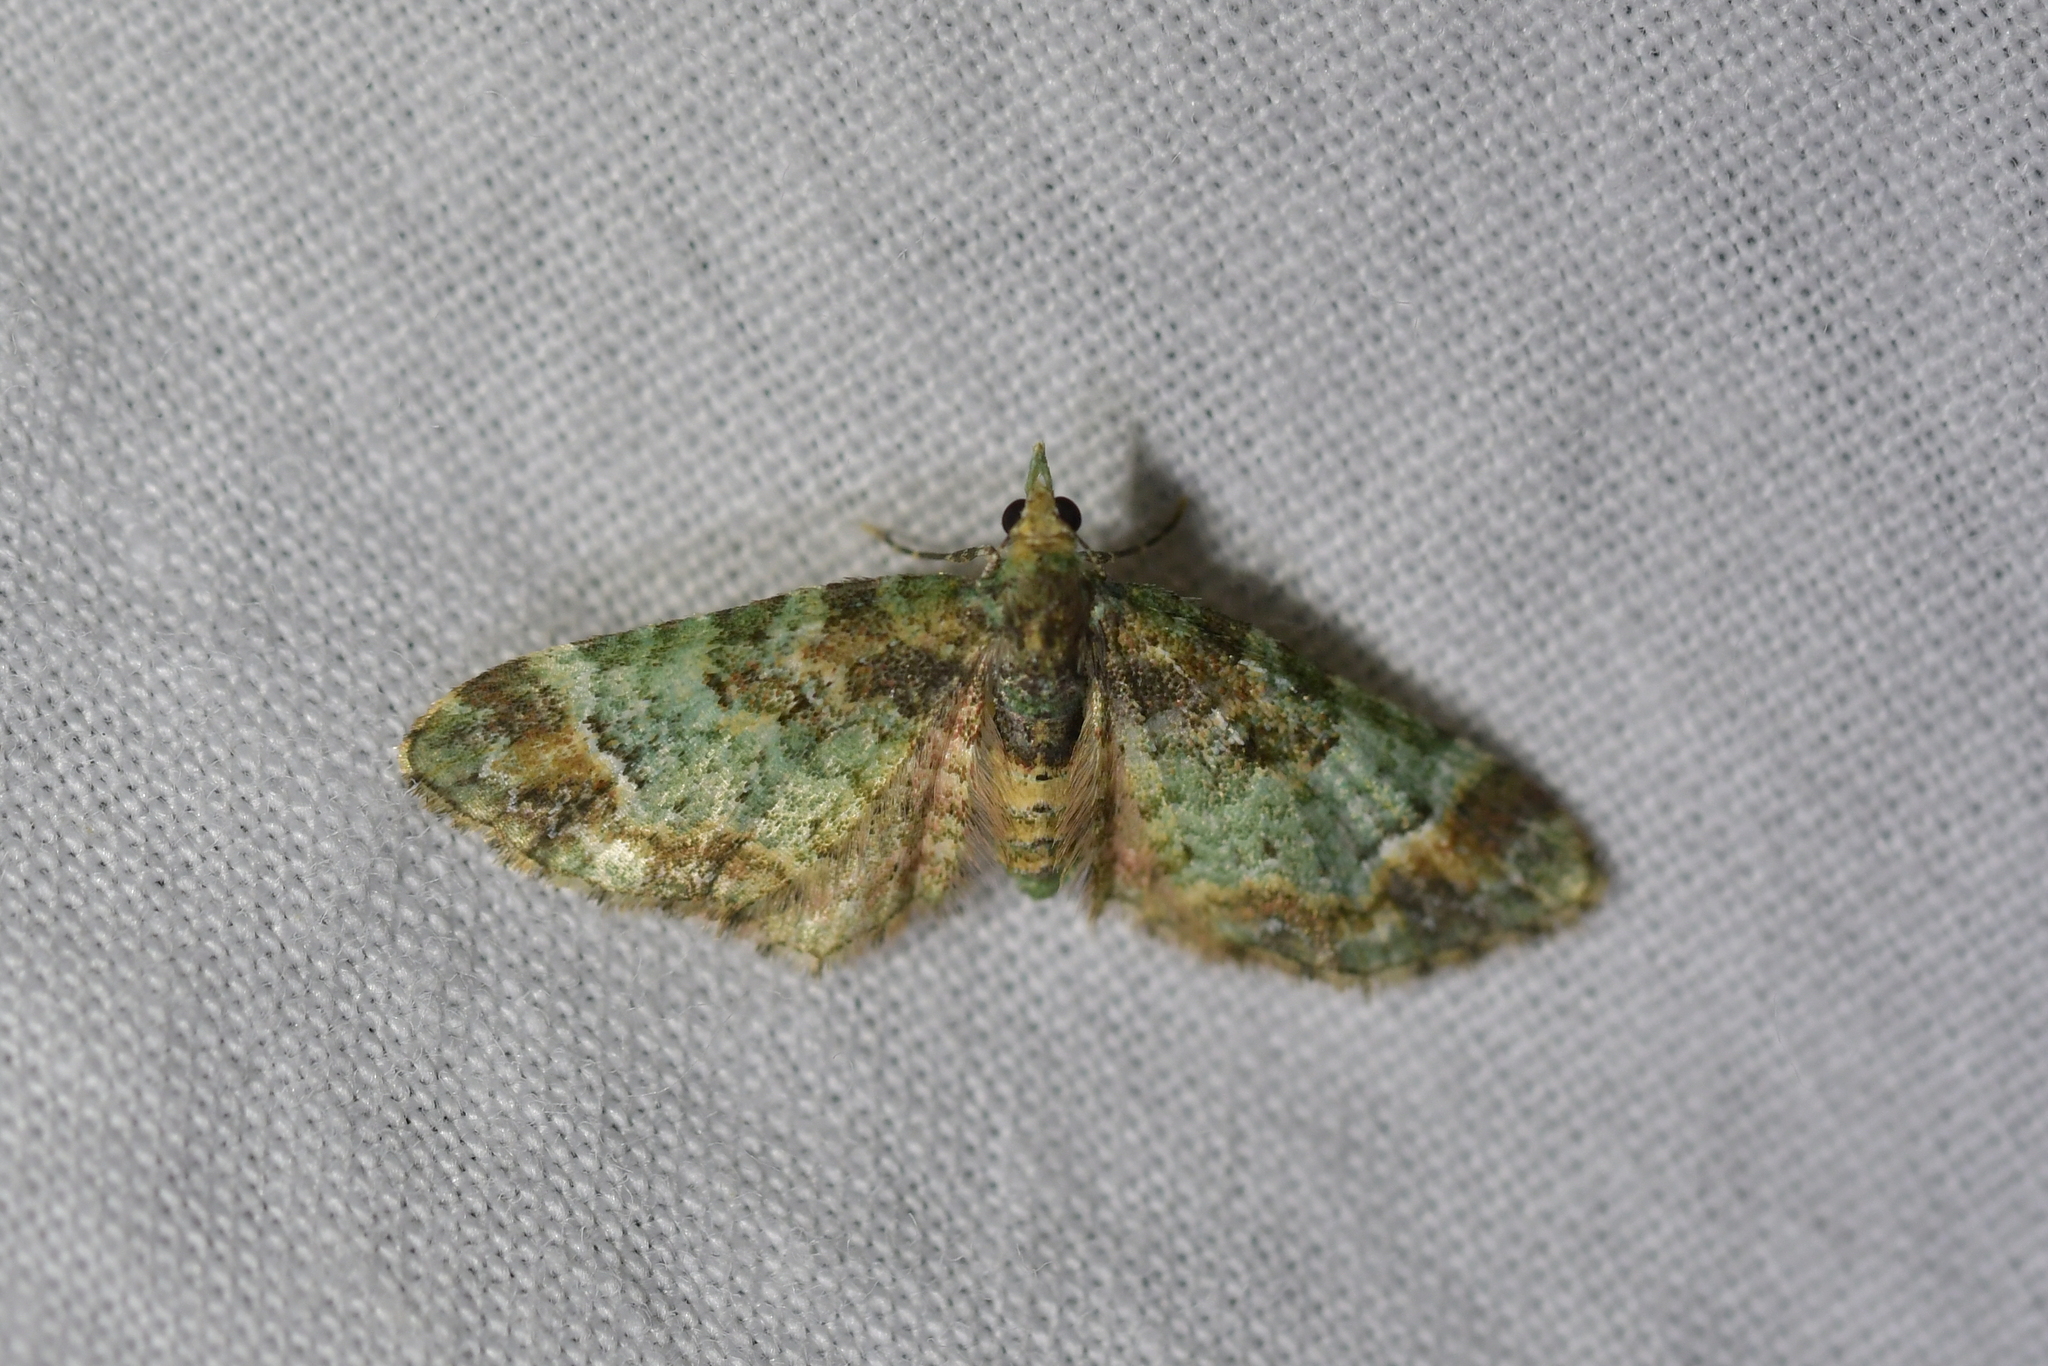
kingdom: Animalia
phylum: Arthropoda
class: Insecta
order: Lepidoptera
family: Geometridae
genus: Pasiphila
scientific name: Pasiphila sandycias
